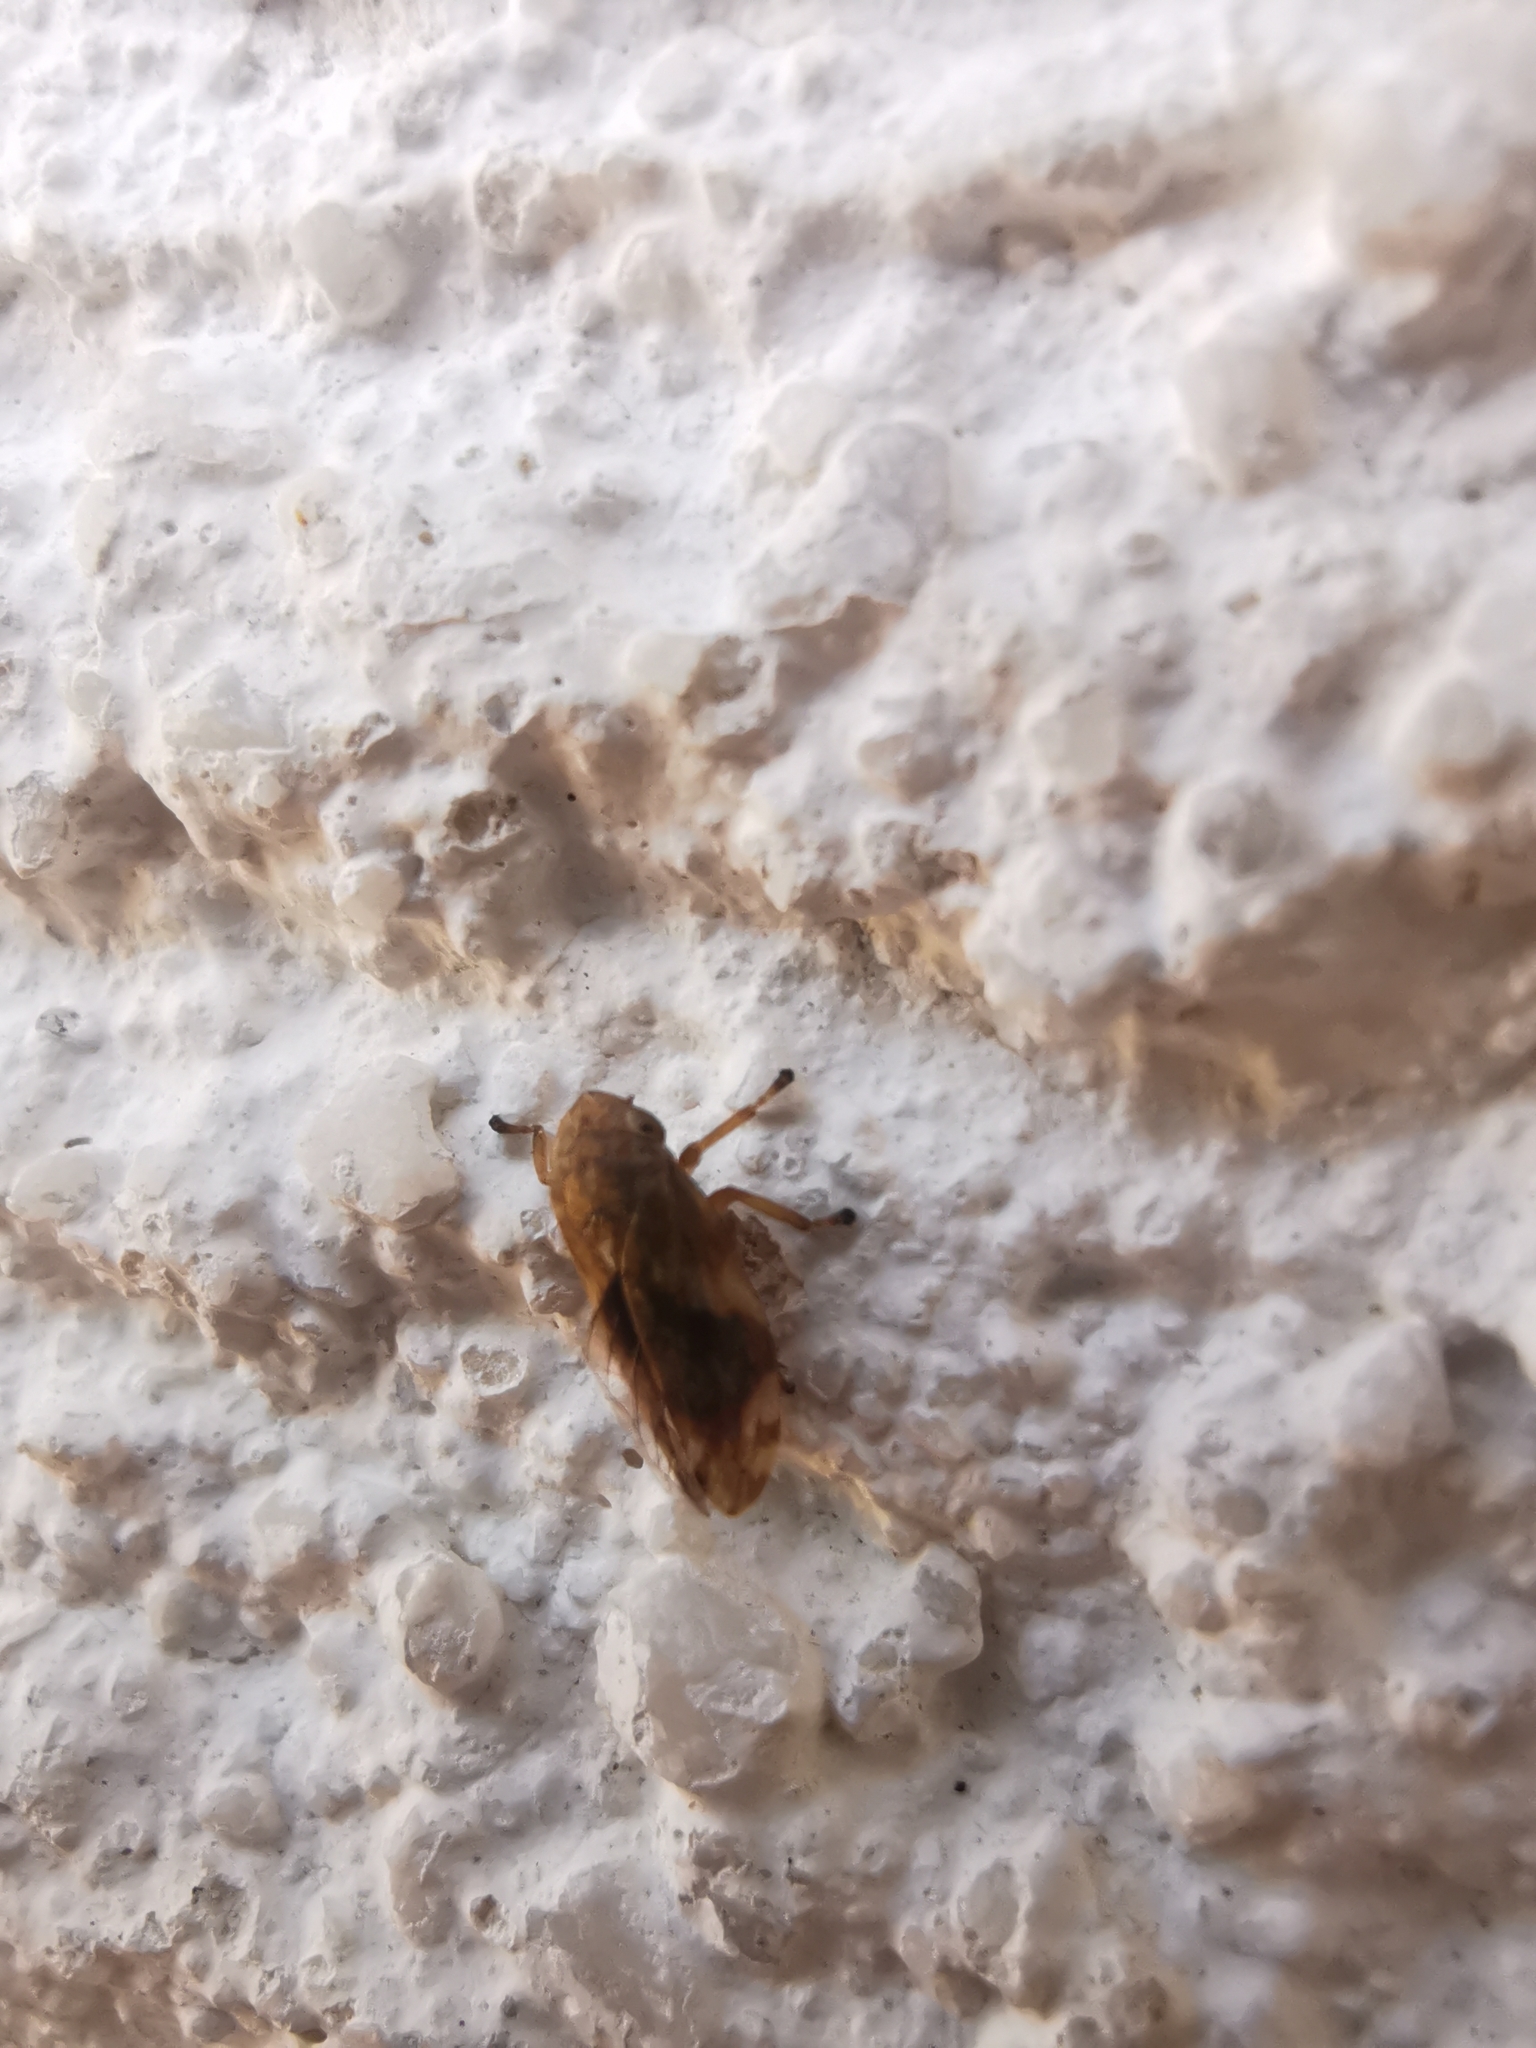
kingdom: Animalia
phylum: Arthropoda
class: Insecta
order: Hemiptera
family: Aphrophoridae
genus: Philaenus
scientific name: Philaenus spumarius
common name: Meadow spittlebug
